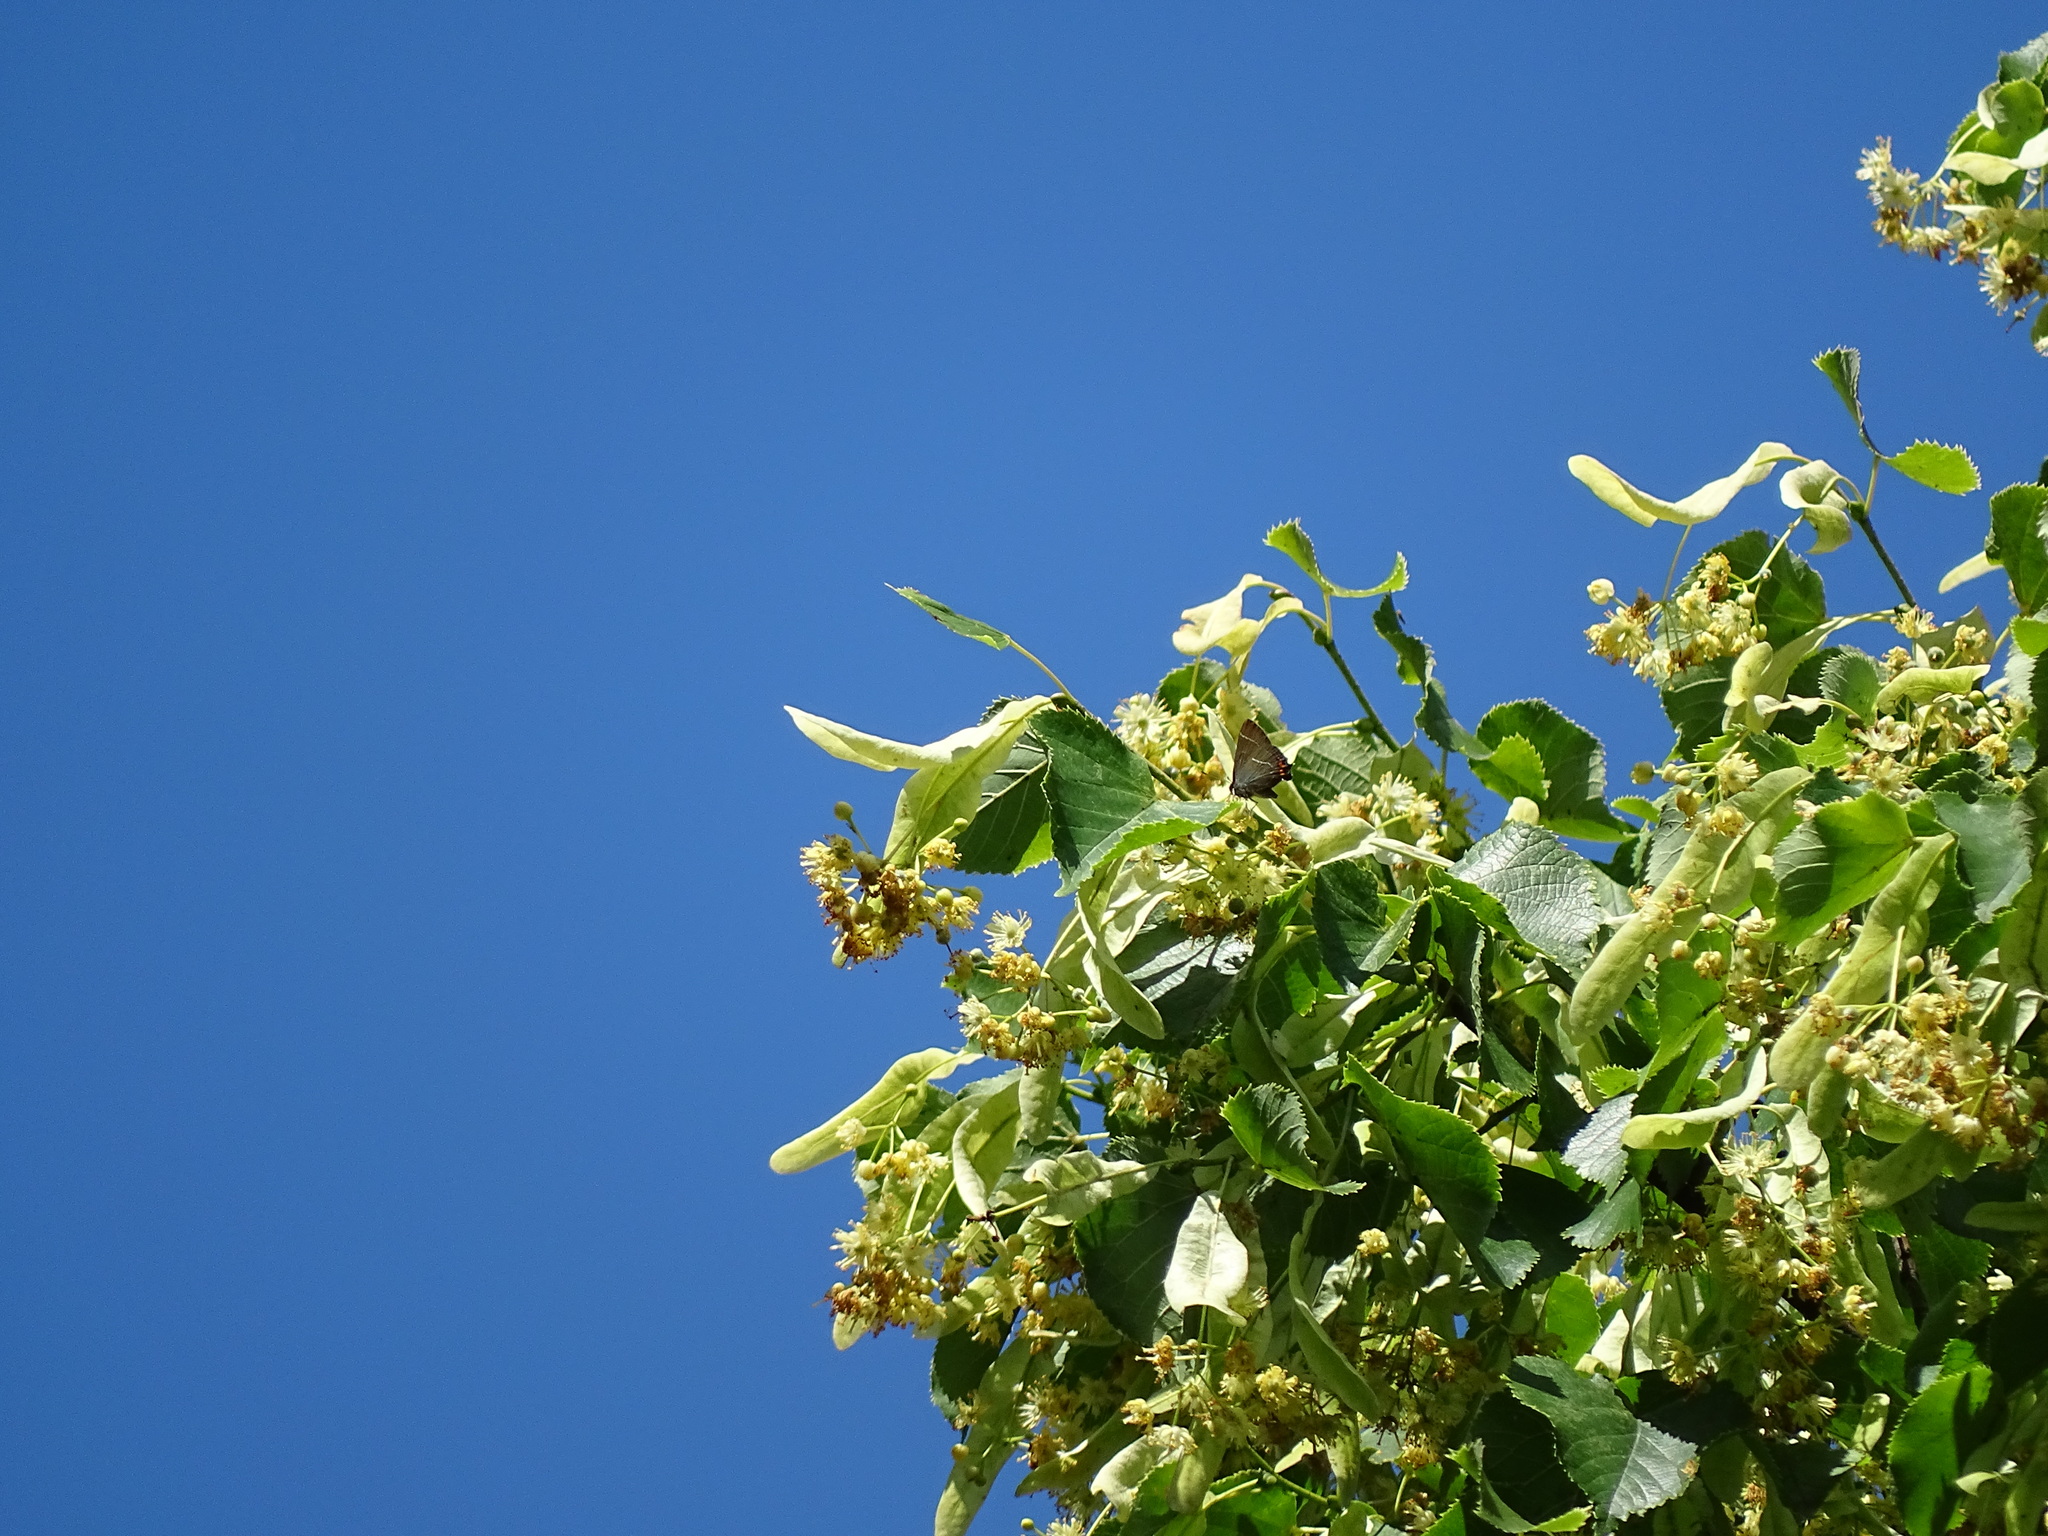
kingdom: Animalia
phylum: Arthropoda
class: Insecta
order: Lepidoptera
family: Lycaenidae
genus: Satyrium
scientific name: Satyrium w-album
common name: White-letter hairstreak
